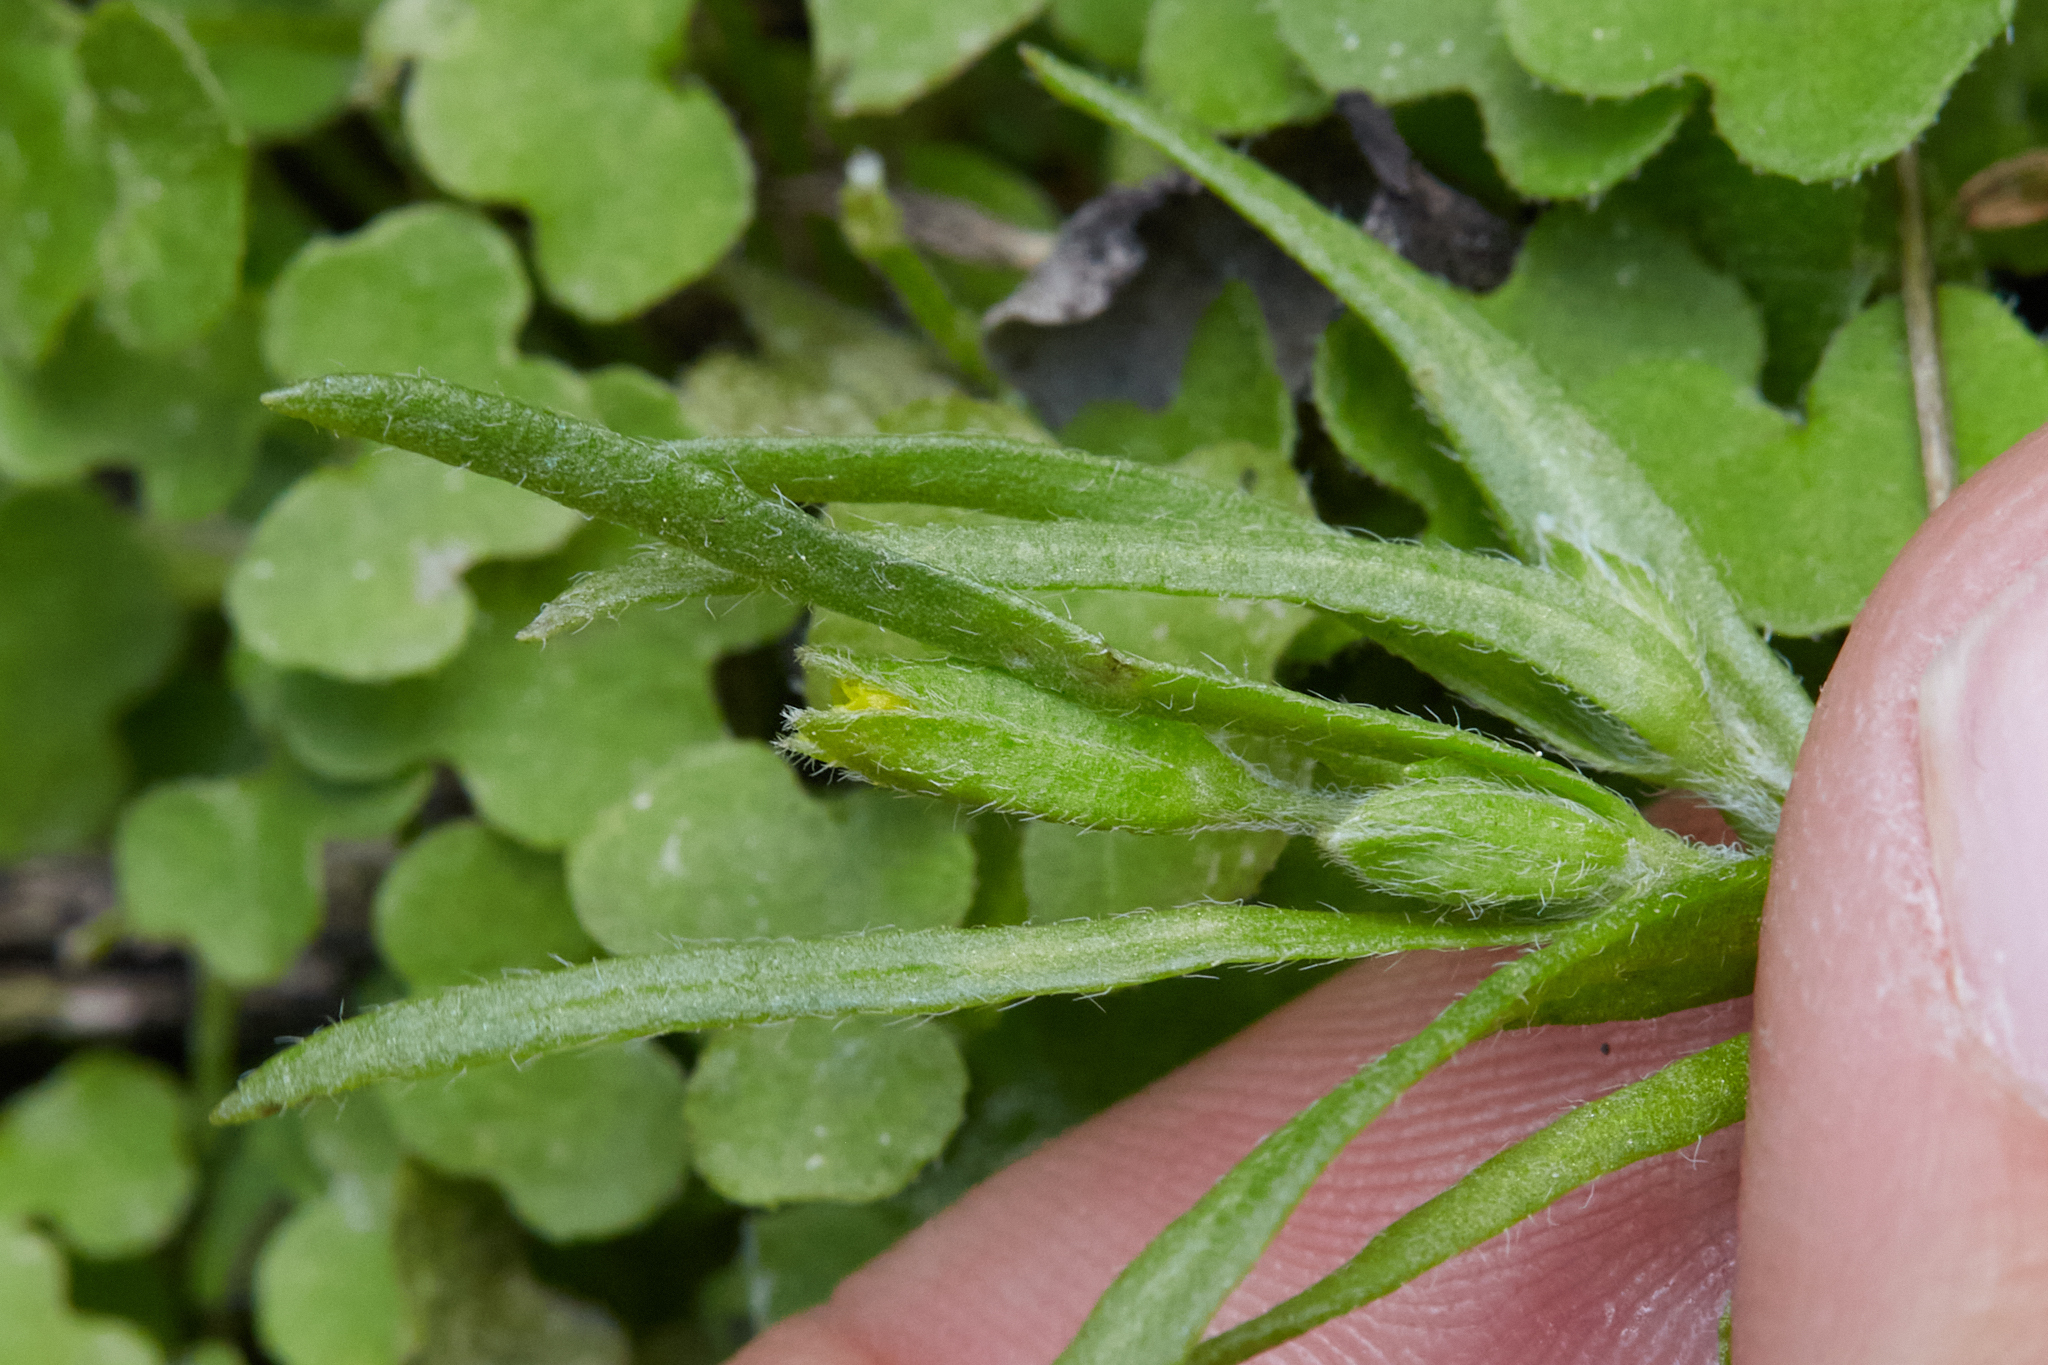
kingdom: Plantae
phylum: Tracheophyta
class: Magnoliopsida
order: Asterales
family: Asteraceae
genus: Lasthenia
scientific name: Lasthenia microglossa
